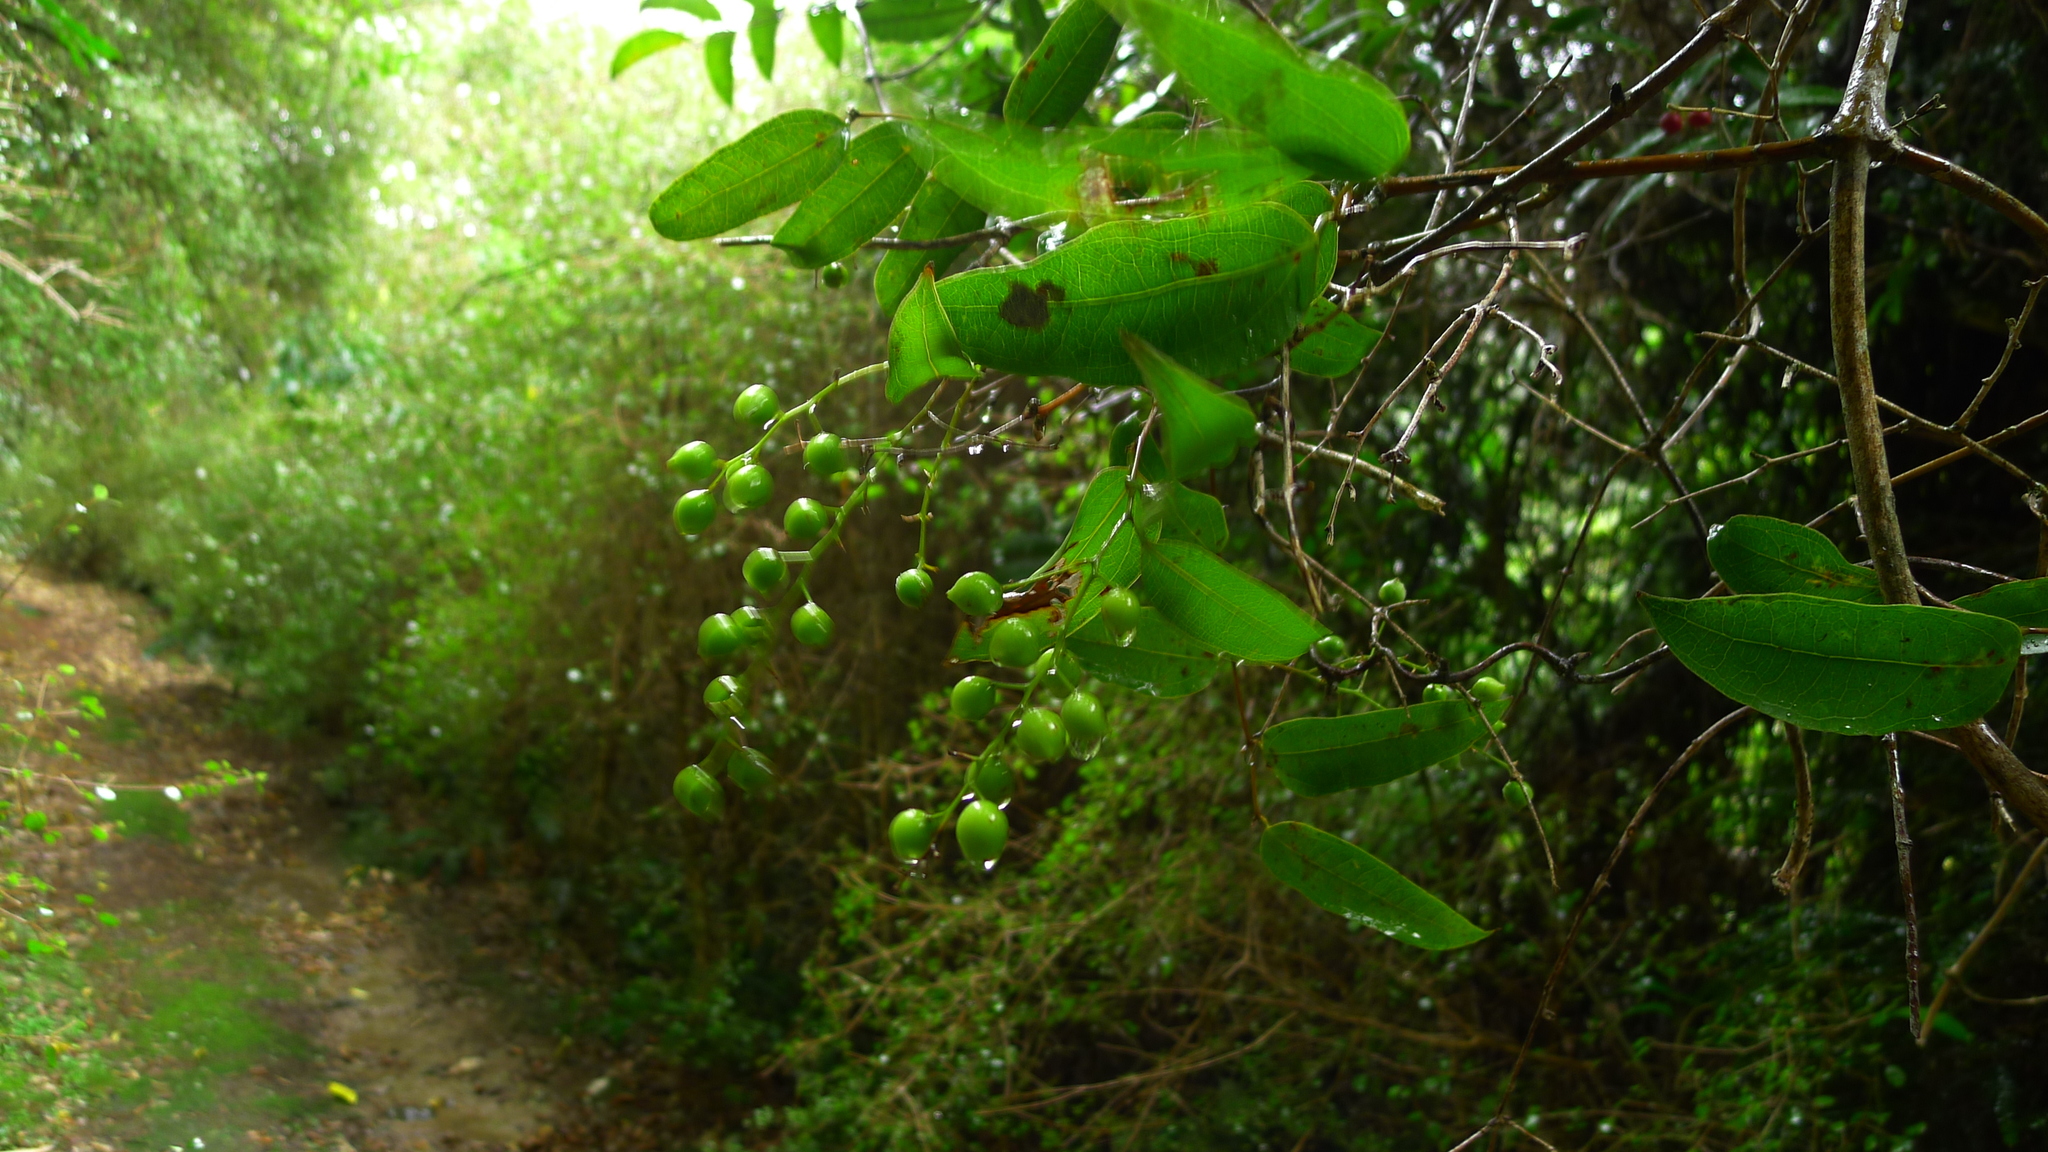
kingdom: Plantae
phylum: Tracheophyta
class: Liliopsida
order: Liliales
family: Ripogonaceae
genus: Ripogonum
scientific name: Ripogonum scandens
